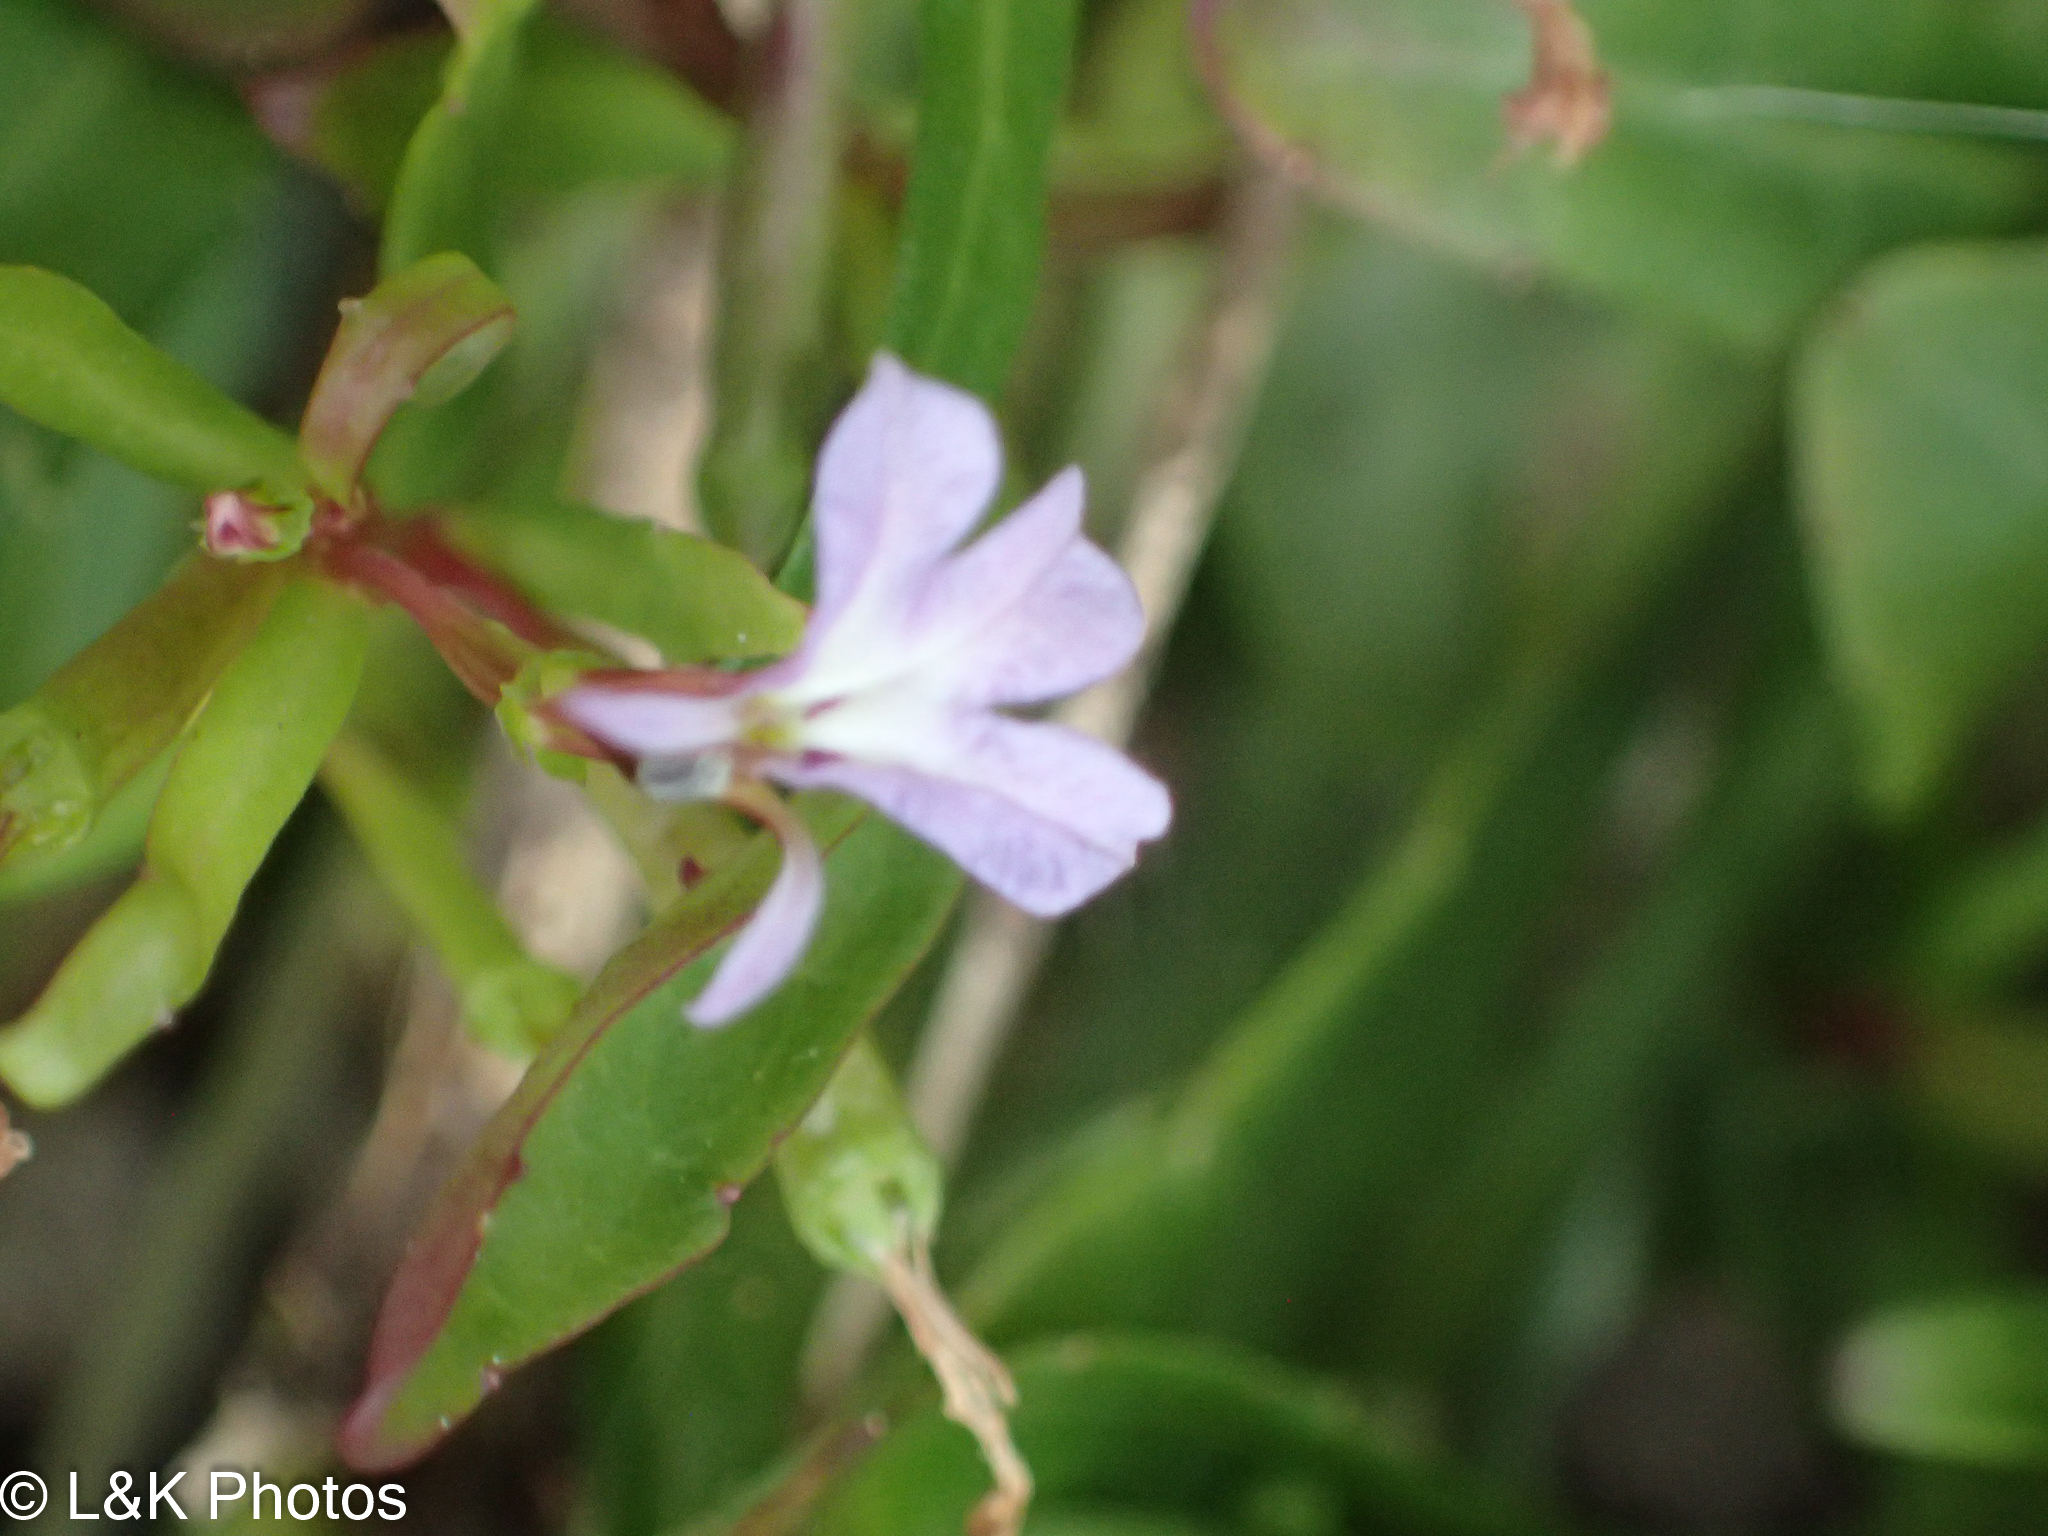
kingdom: Plantae
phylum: Tracheophyta
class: Magnoliopsida
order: Asterales
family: Campanulaceae
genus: Lobelia
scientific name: Lobelia anceps
